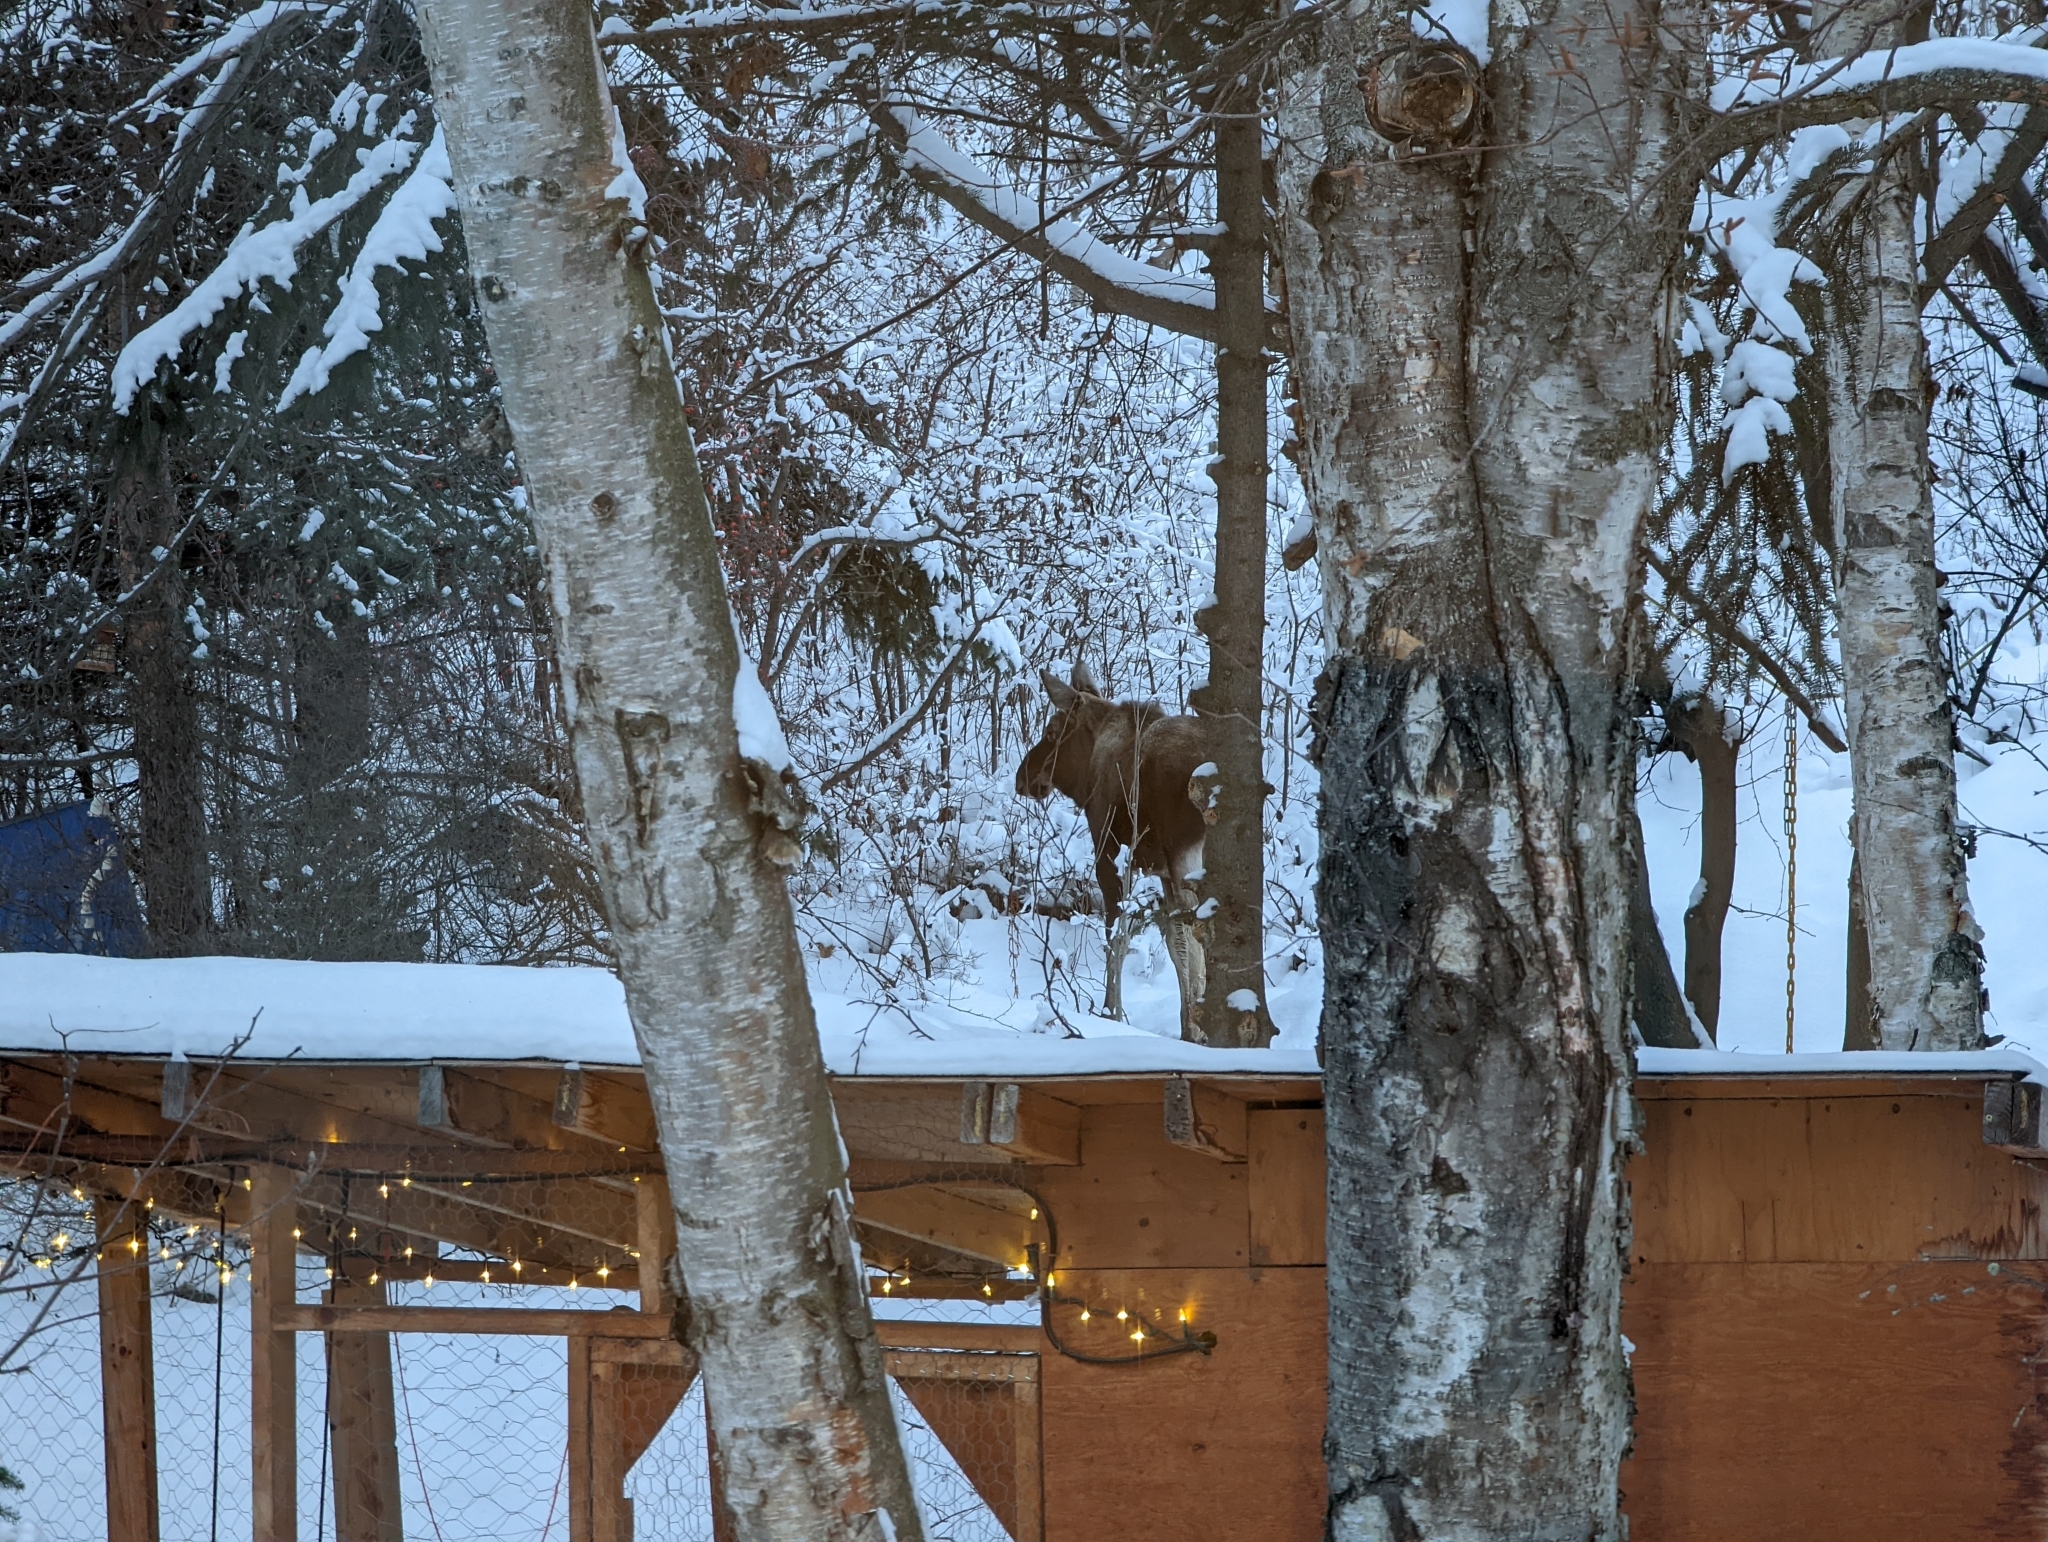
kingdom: Animalia
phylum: Chordata
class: Mammalia
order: Artiodactyla
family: Cervidae
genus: Alces
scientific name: Alces alces
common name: Moose
